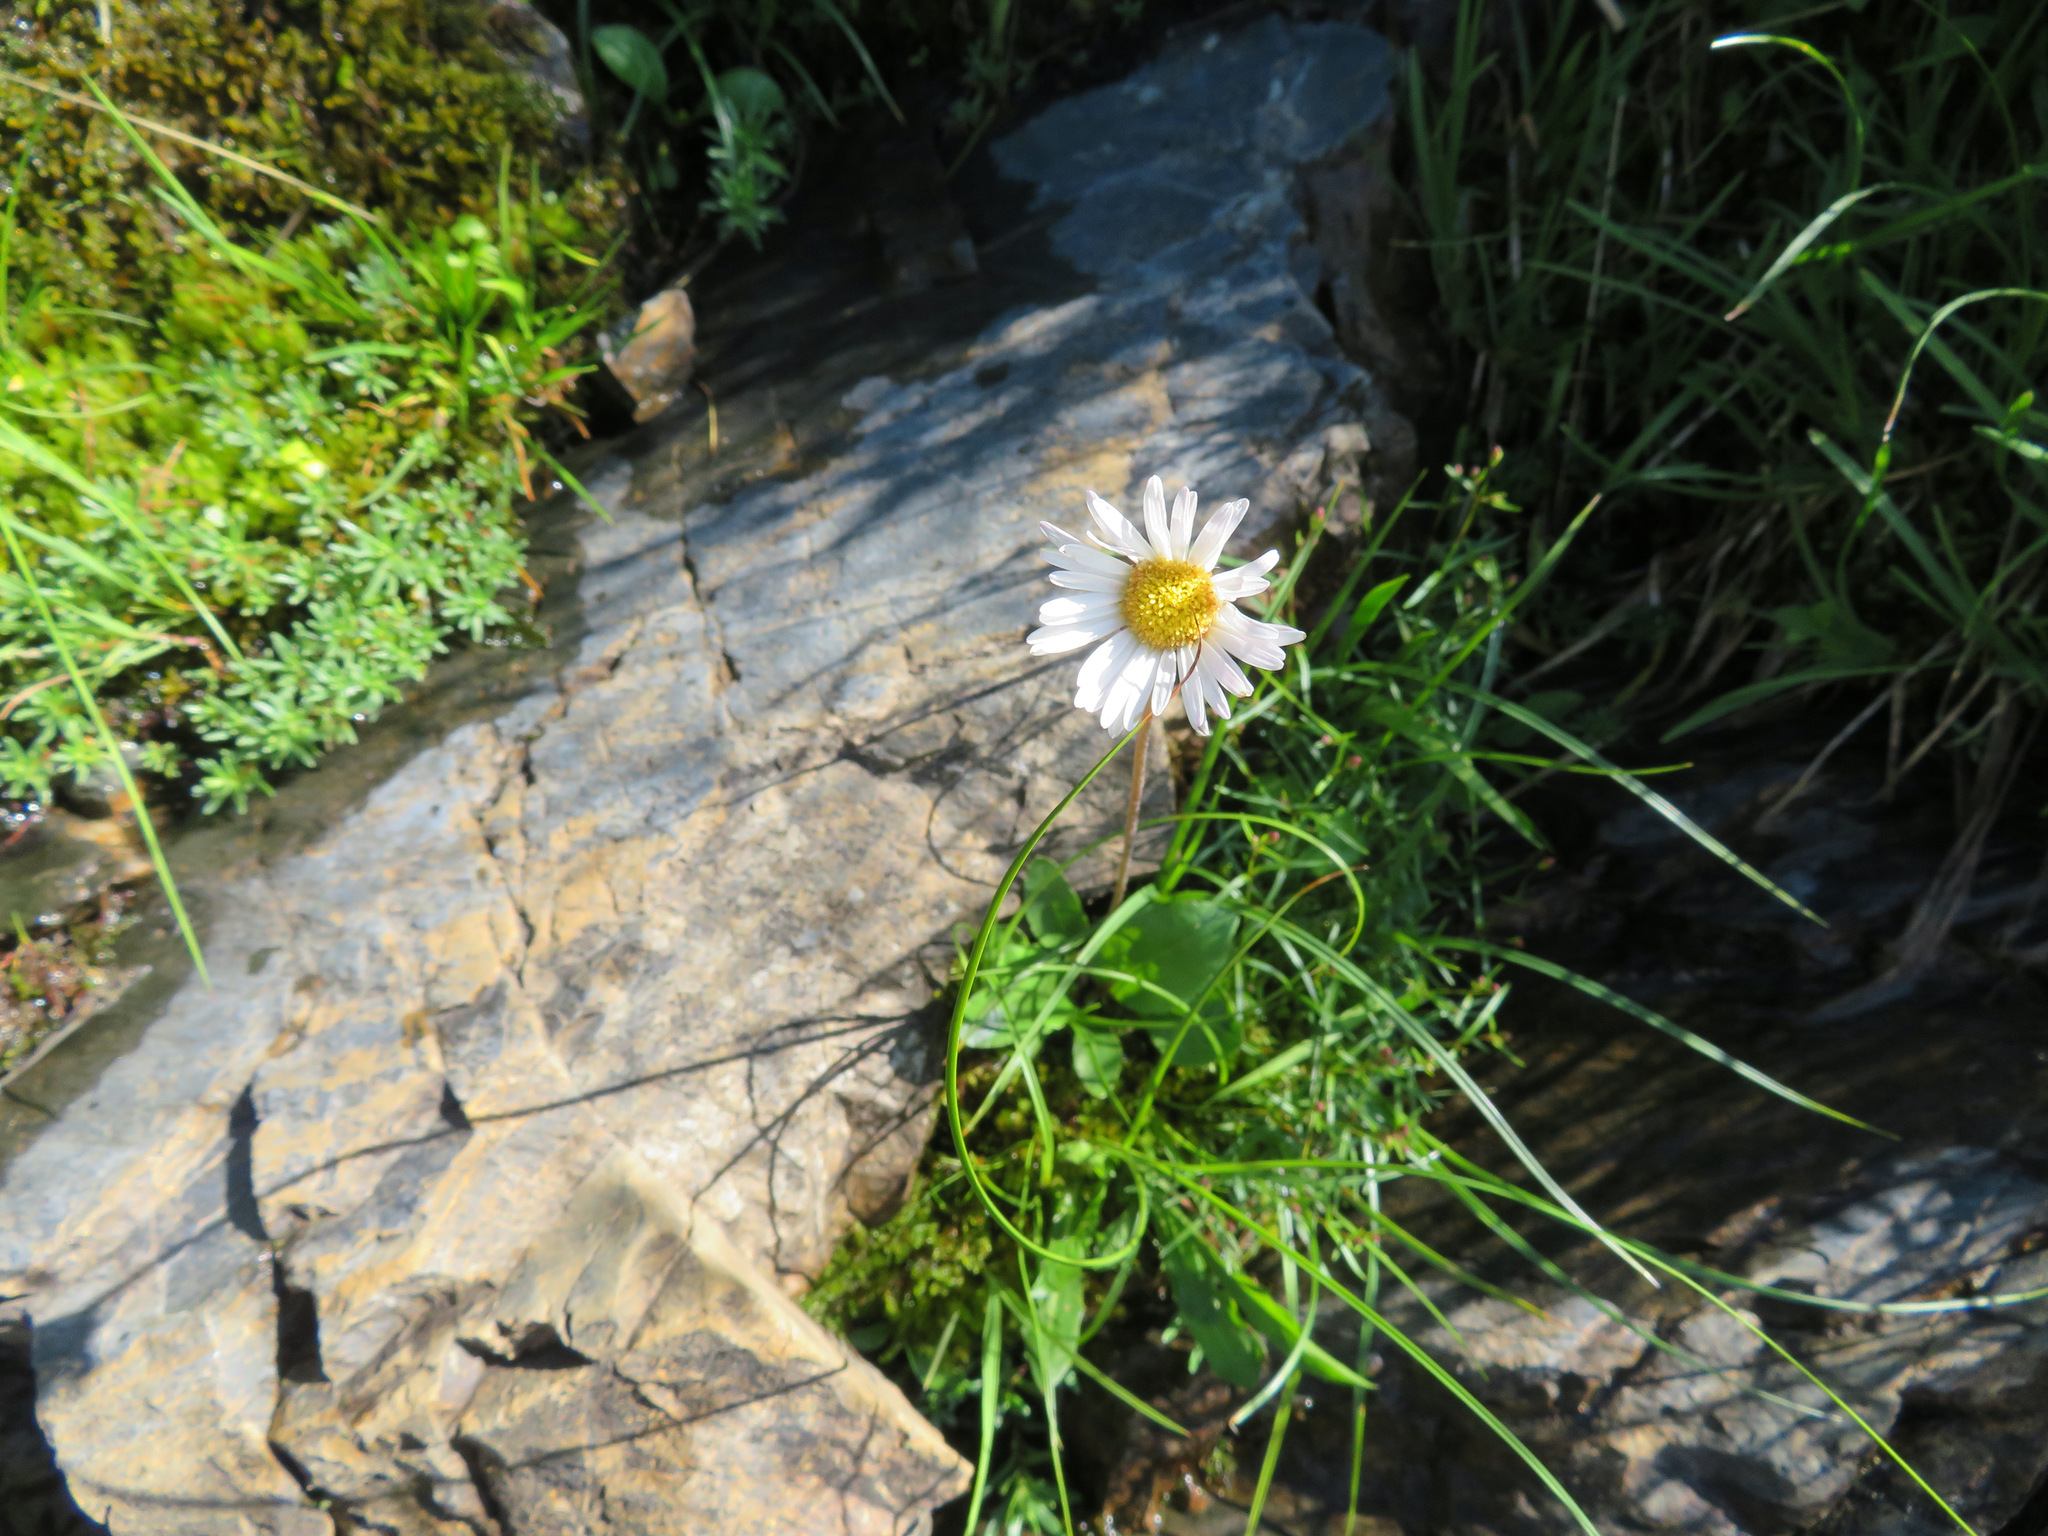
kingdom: Plantae
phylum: Tracheophyta
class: Magnoliopsida
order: Asterales
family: Asteraceae
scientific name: Asteraceae
